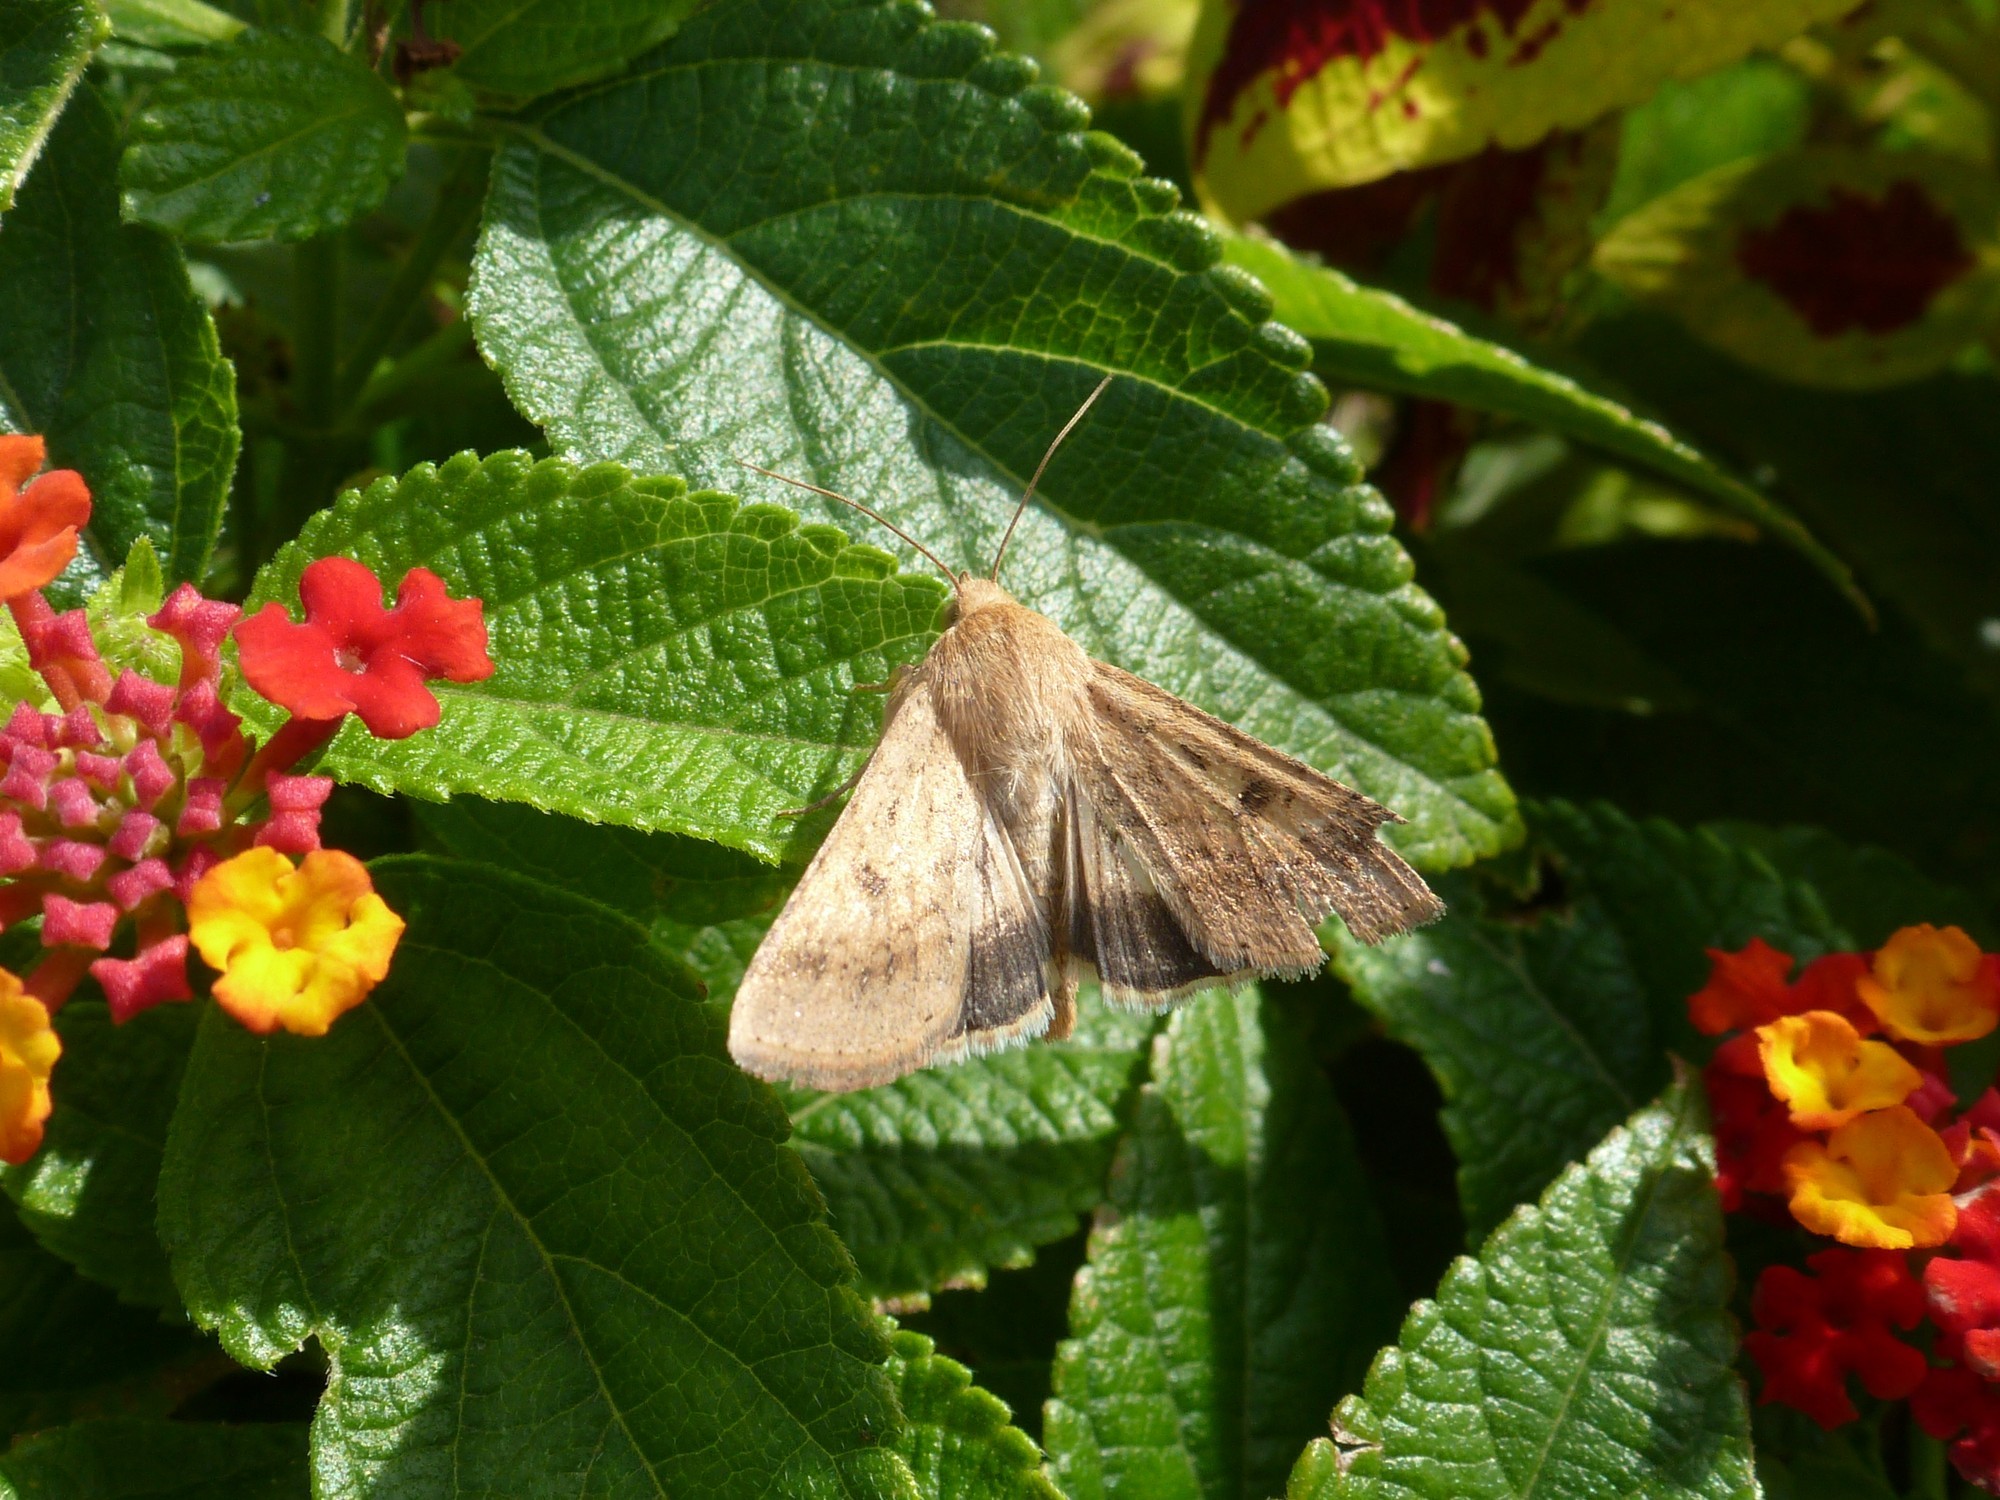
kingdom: Animalia
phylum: Arthropoda
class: Insecta
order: Lepidoptera
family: Noctuidae
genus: Helicoverpa
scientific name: Helicoverpa armigera
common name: Cotton bollworm
